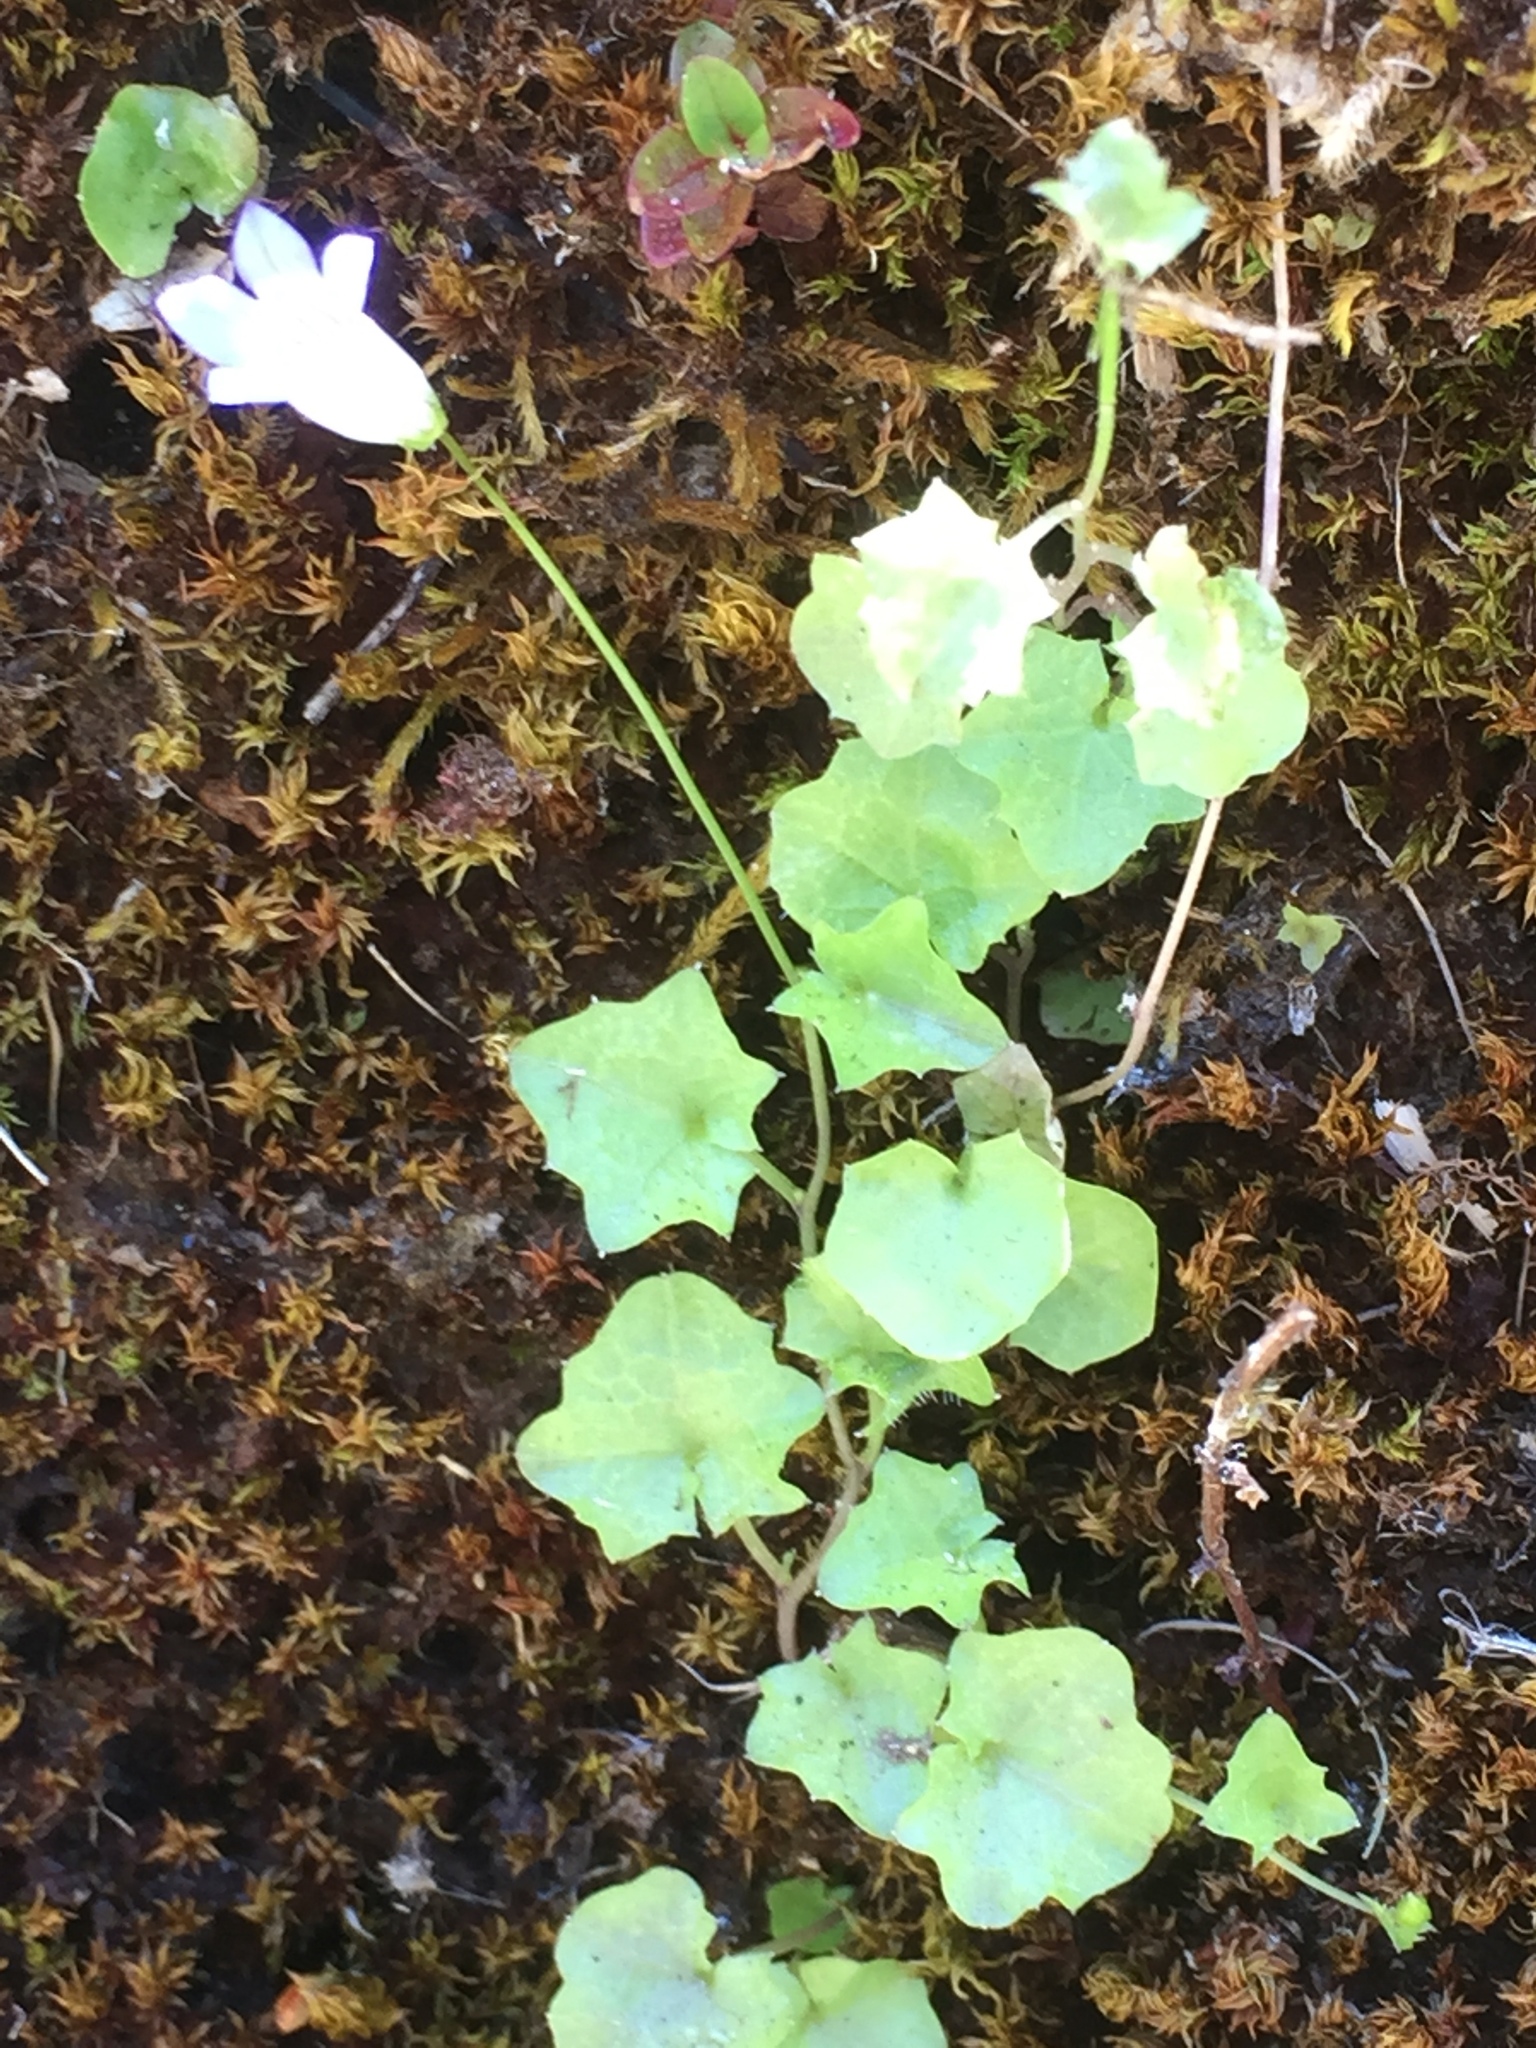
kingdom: Plantae
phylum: Tracheophyta
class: Magnoliopsida
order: Asterales
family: Campanulaceae
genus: Hesperocodon
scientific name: Hesperocodon hederaceus
